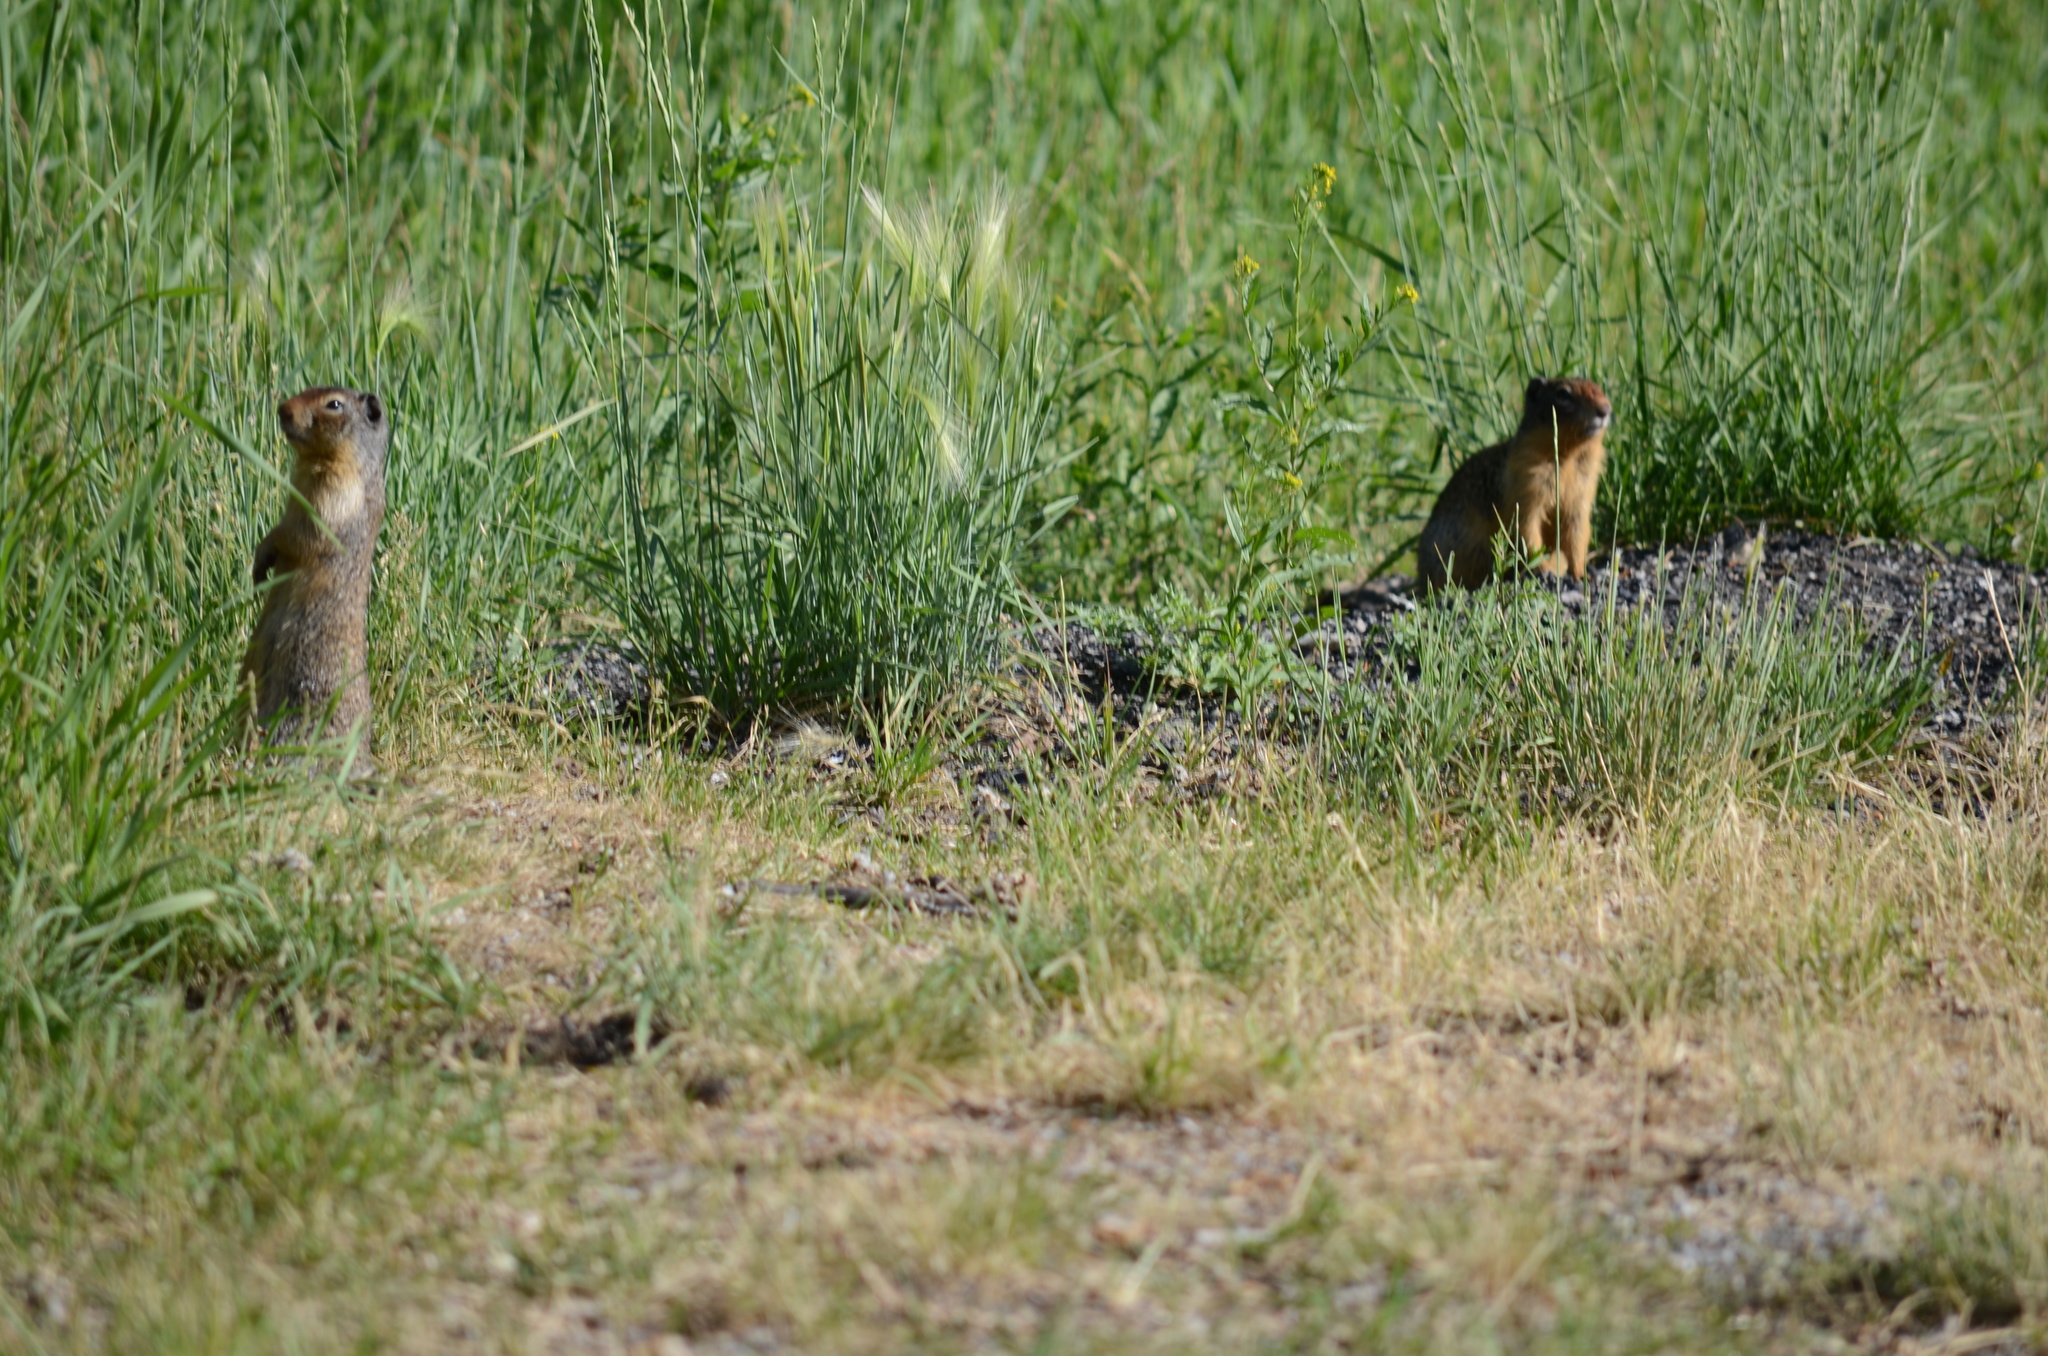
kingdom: Animalia
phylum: Chordata
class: Mammalia
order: Rodentia
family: Sciuridae
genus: Urocitellus
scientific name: Urocitellus columbianus
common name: Columbian ground squirrel
